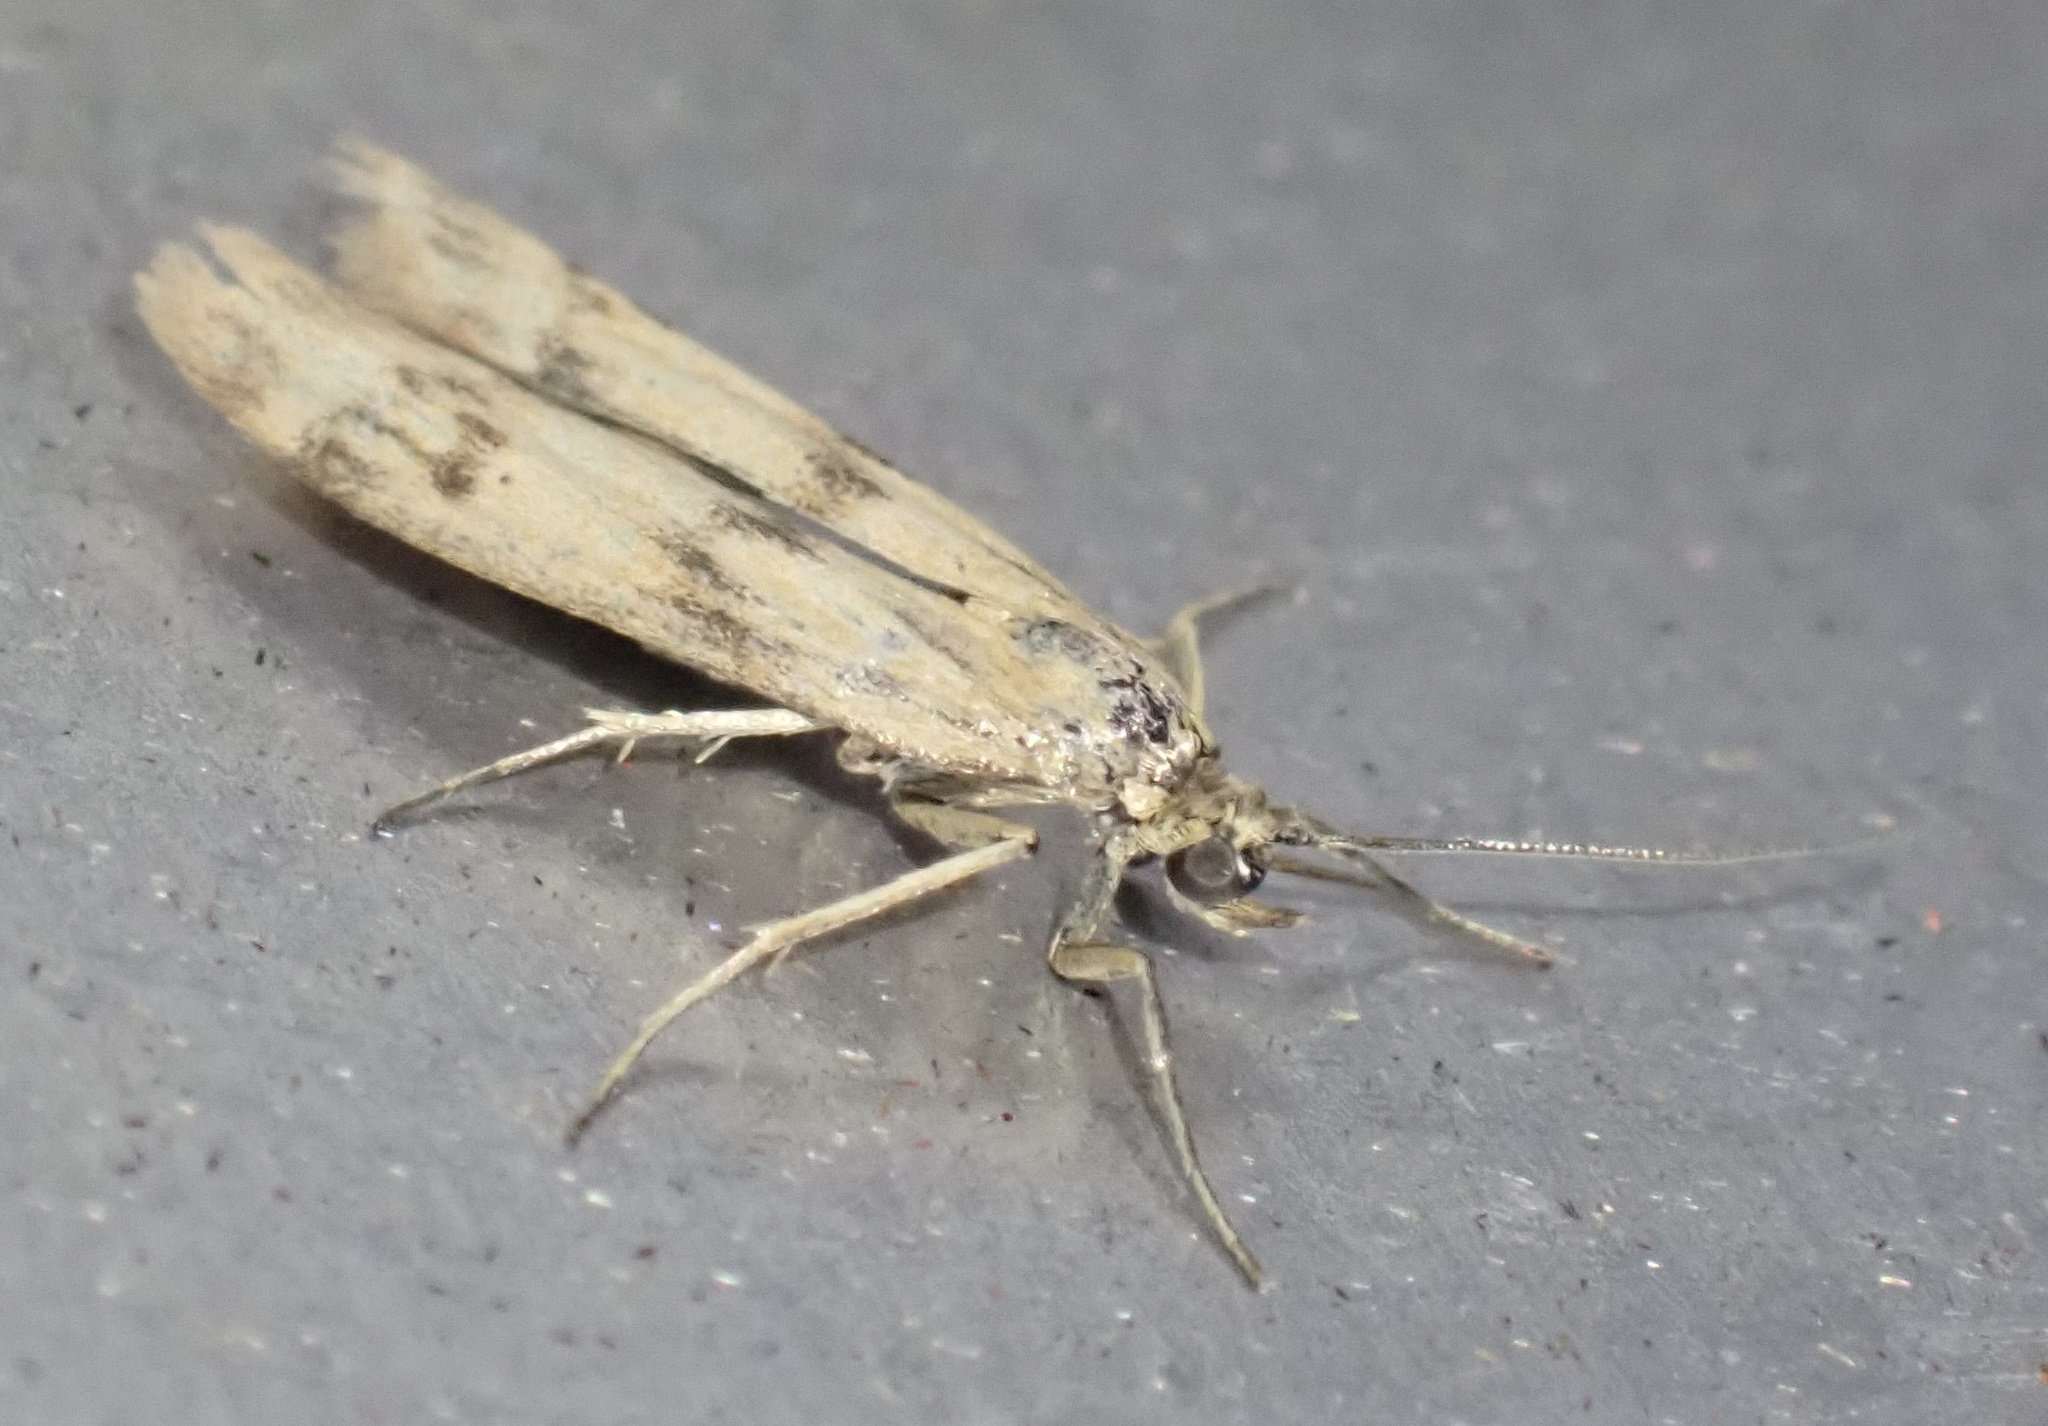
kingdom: Animalia
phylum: Arthropoda
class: Insecta
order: Lepidoptera
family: Pyralidae
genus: Homoeosoma
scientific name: Homoeosoma sinuella
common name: Twin-barred knot-horn
